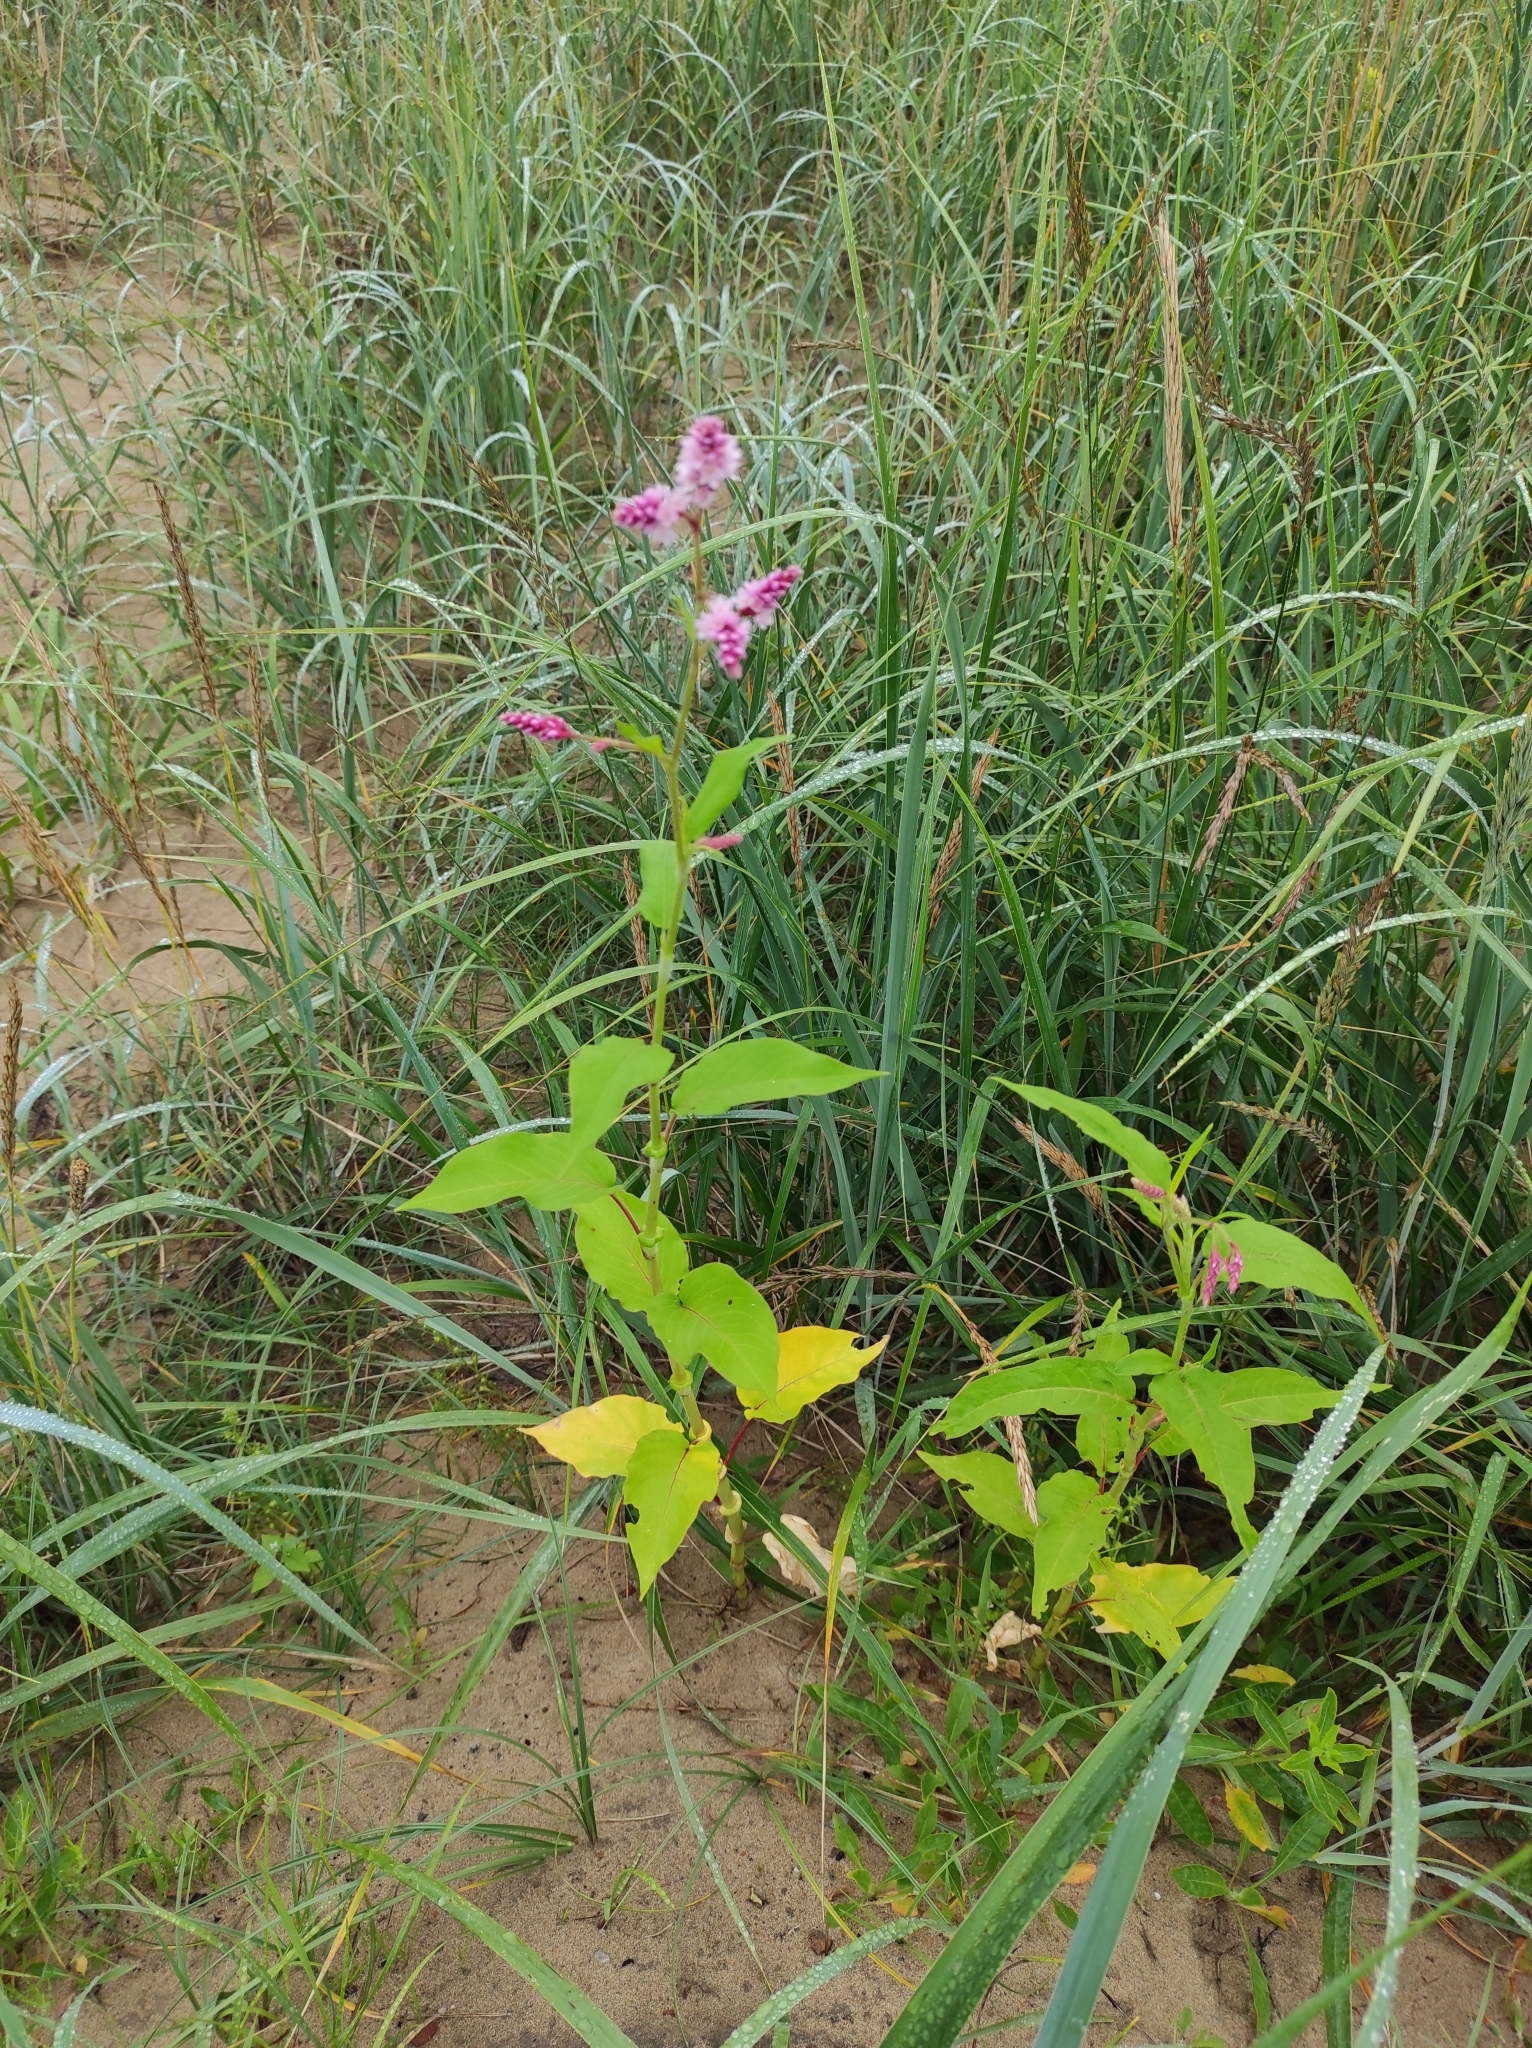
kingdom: Plantae
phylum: Tracheophyta
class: Magnoliopsida
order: Caryophyllales
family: Polygonaceae
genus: Persicaria
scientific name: Persicaria orientalis
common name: Kiss-me-over-the-garden-gate
